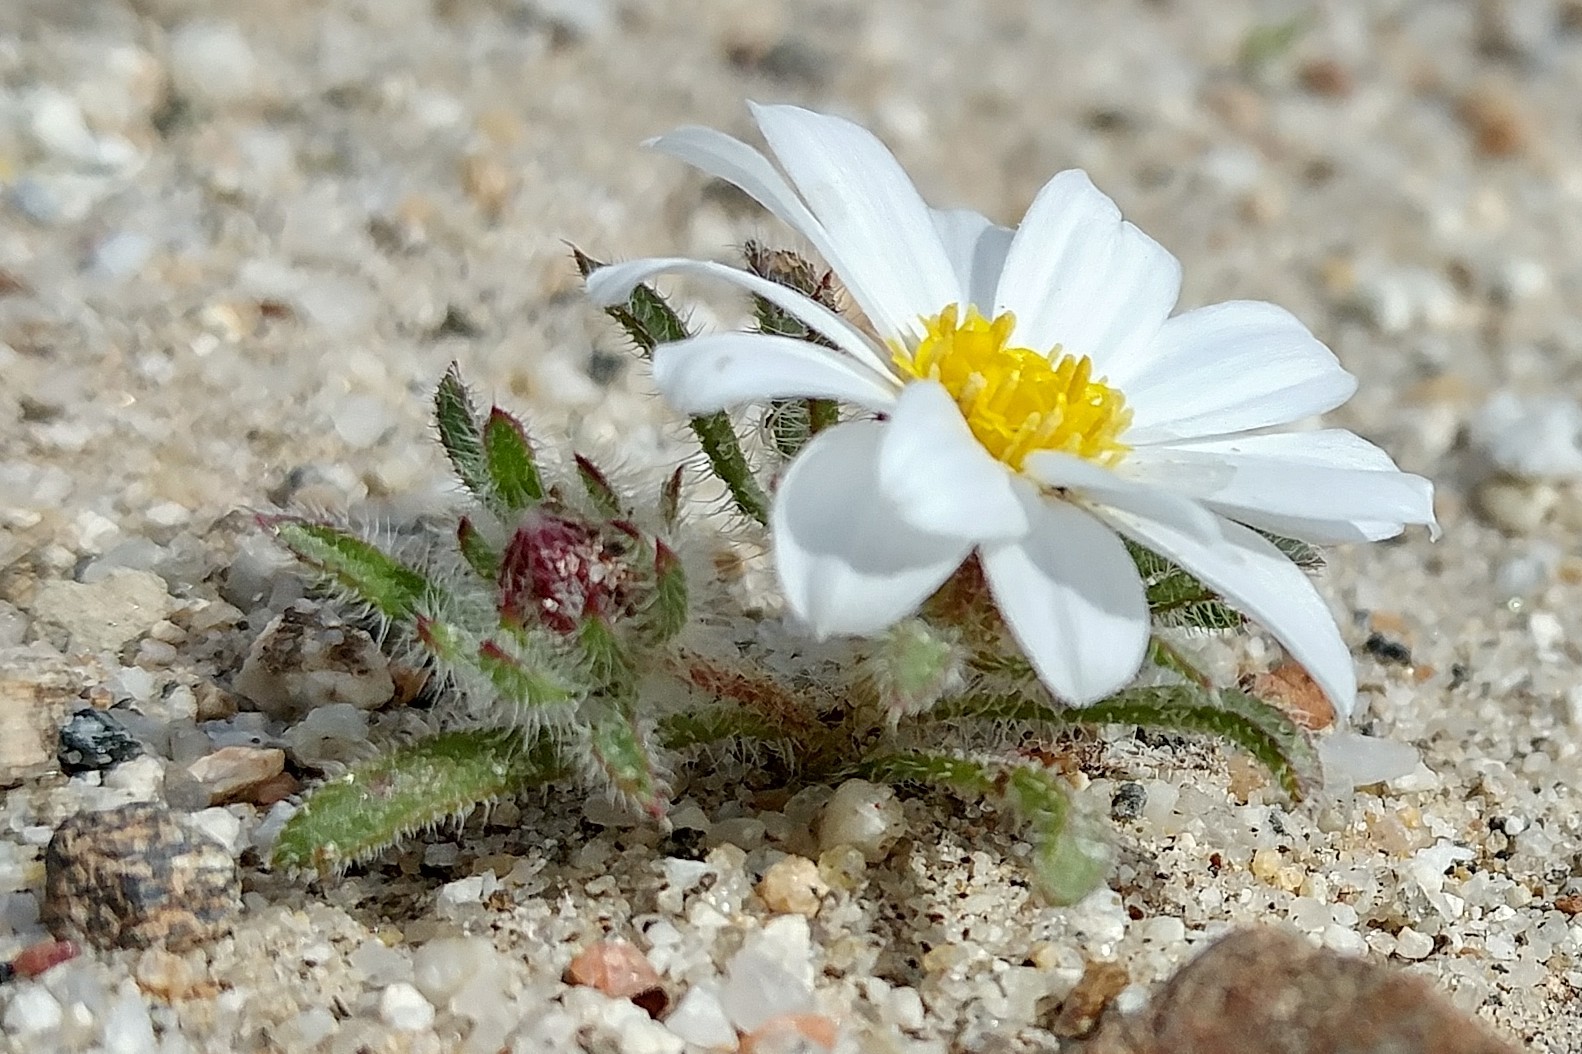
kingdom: Plantae
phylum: Tracheophyta
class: Magnoliopsida
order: Asterales
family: Asteraceae
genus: Monoptilon
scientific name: Monoptilon bellioides
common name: Bristly desertstar
